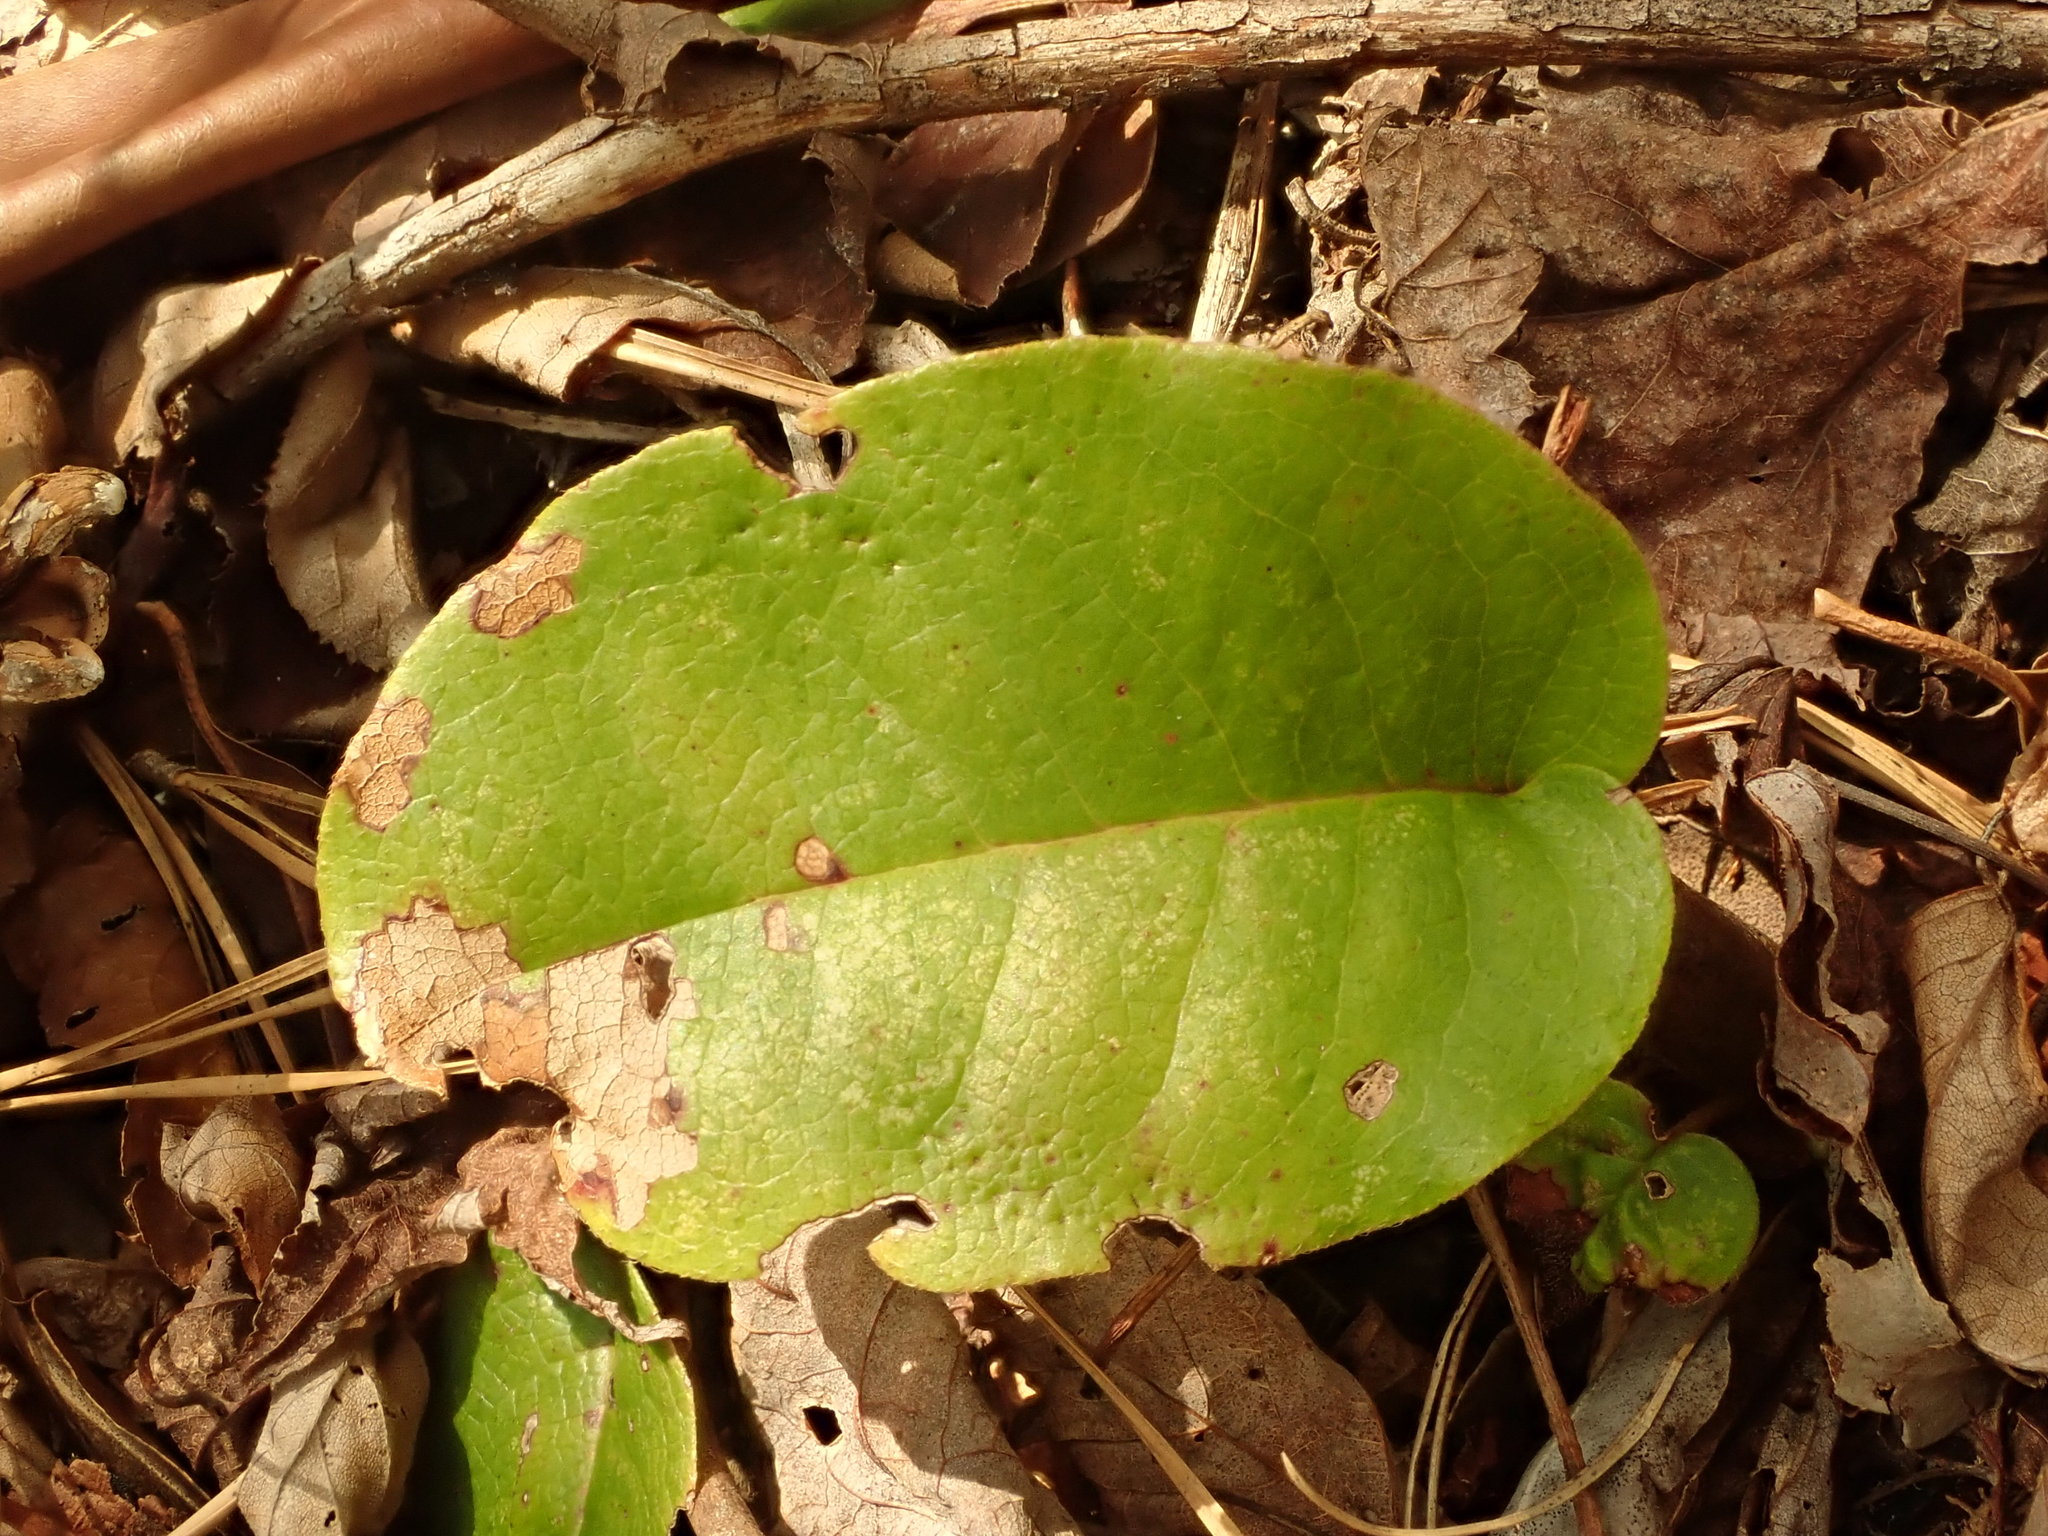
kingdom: Plantae
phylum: Tracheophyta
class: Magnoliopsida
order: Ericales
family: Ericaceae
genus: Epigaea
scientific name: Epigaea repens
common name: Gravelroot
